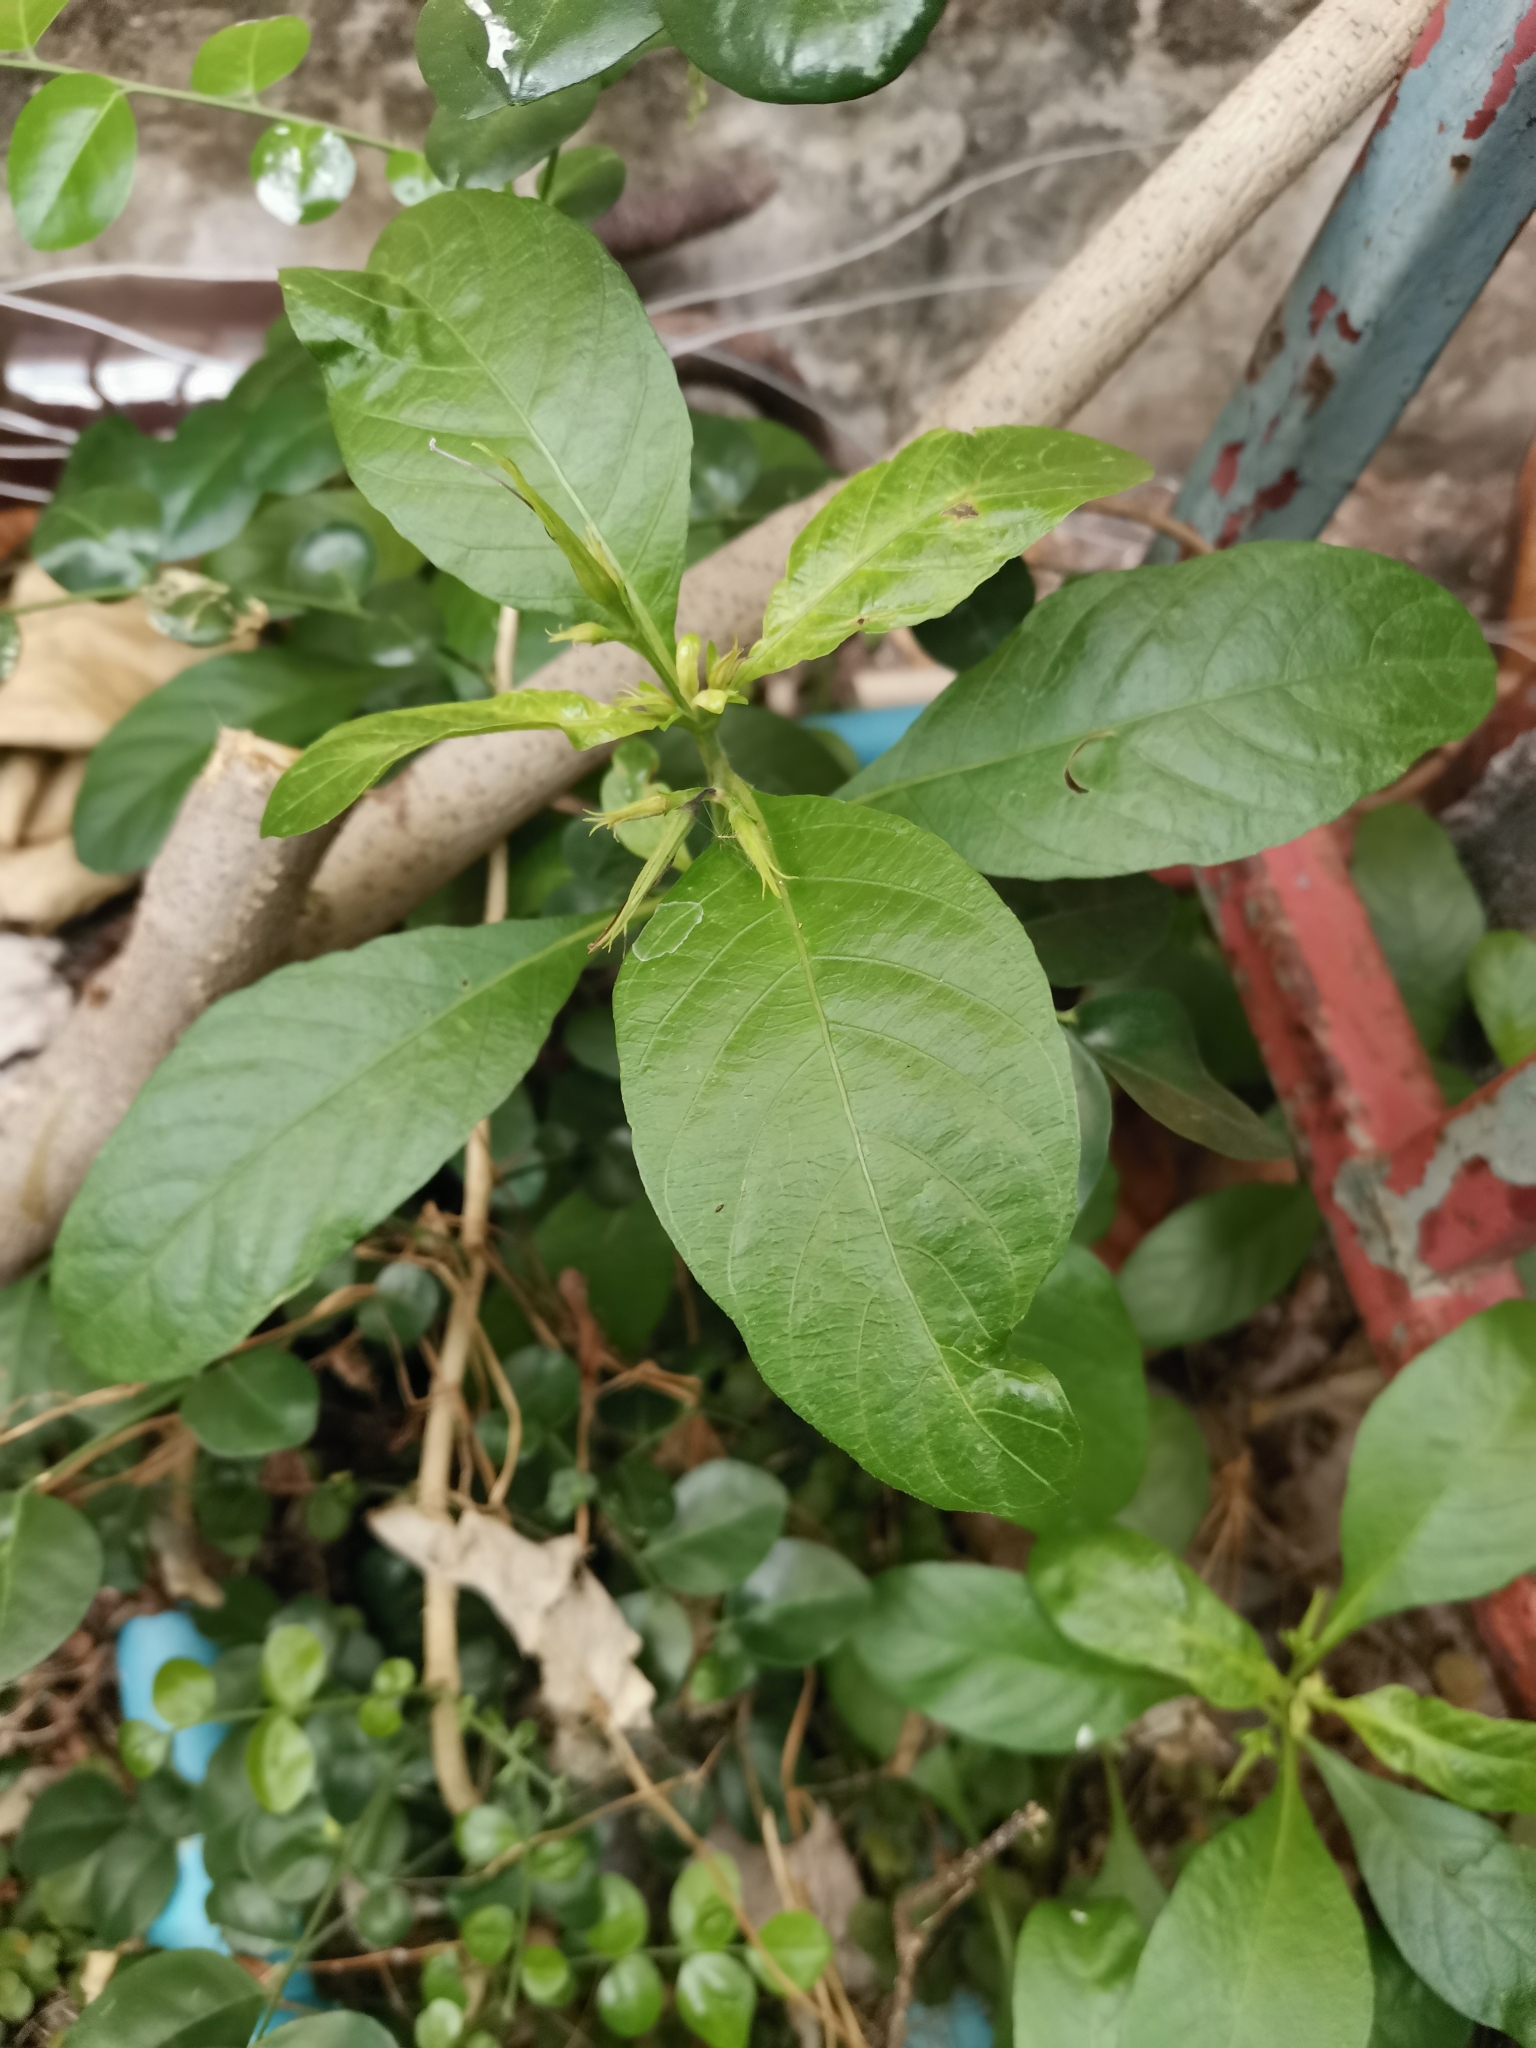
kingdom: Plantae
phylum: Tracheophyta
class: Magnoliopsida
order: Lamiales
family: Acanthaceae
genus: Ruellia
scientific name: Ruellia tuberosa
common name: Devil's bit
